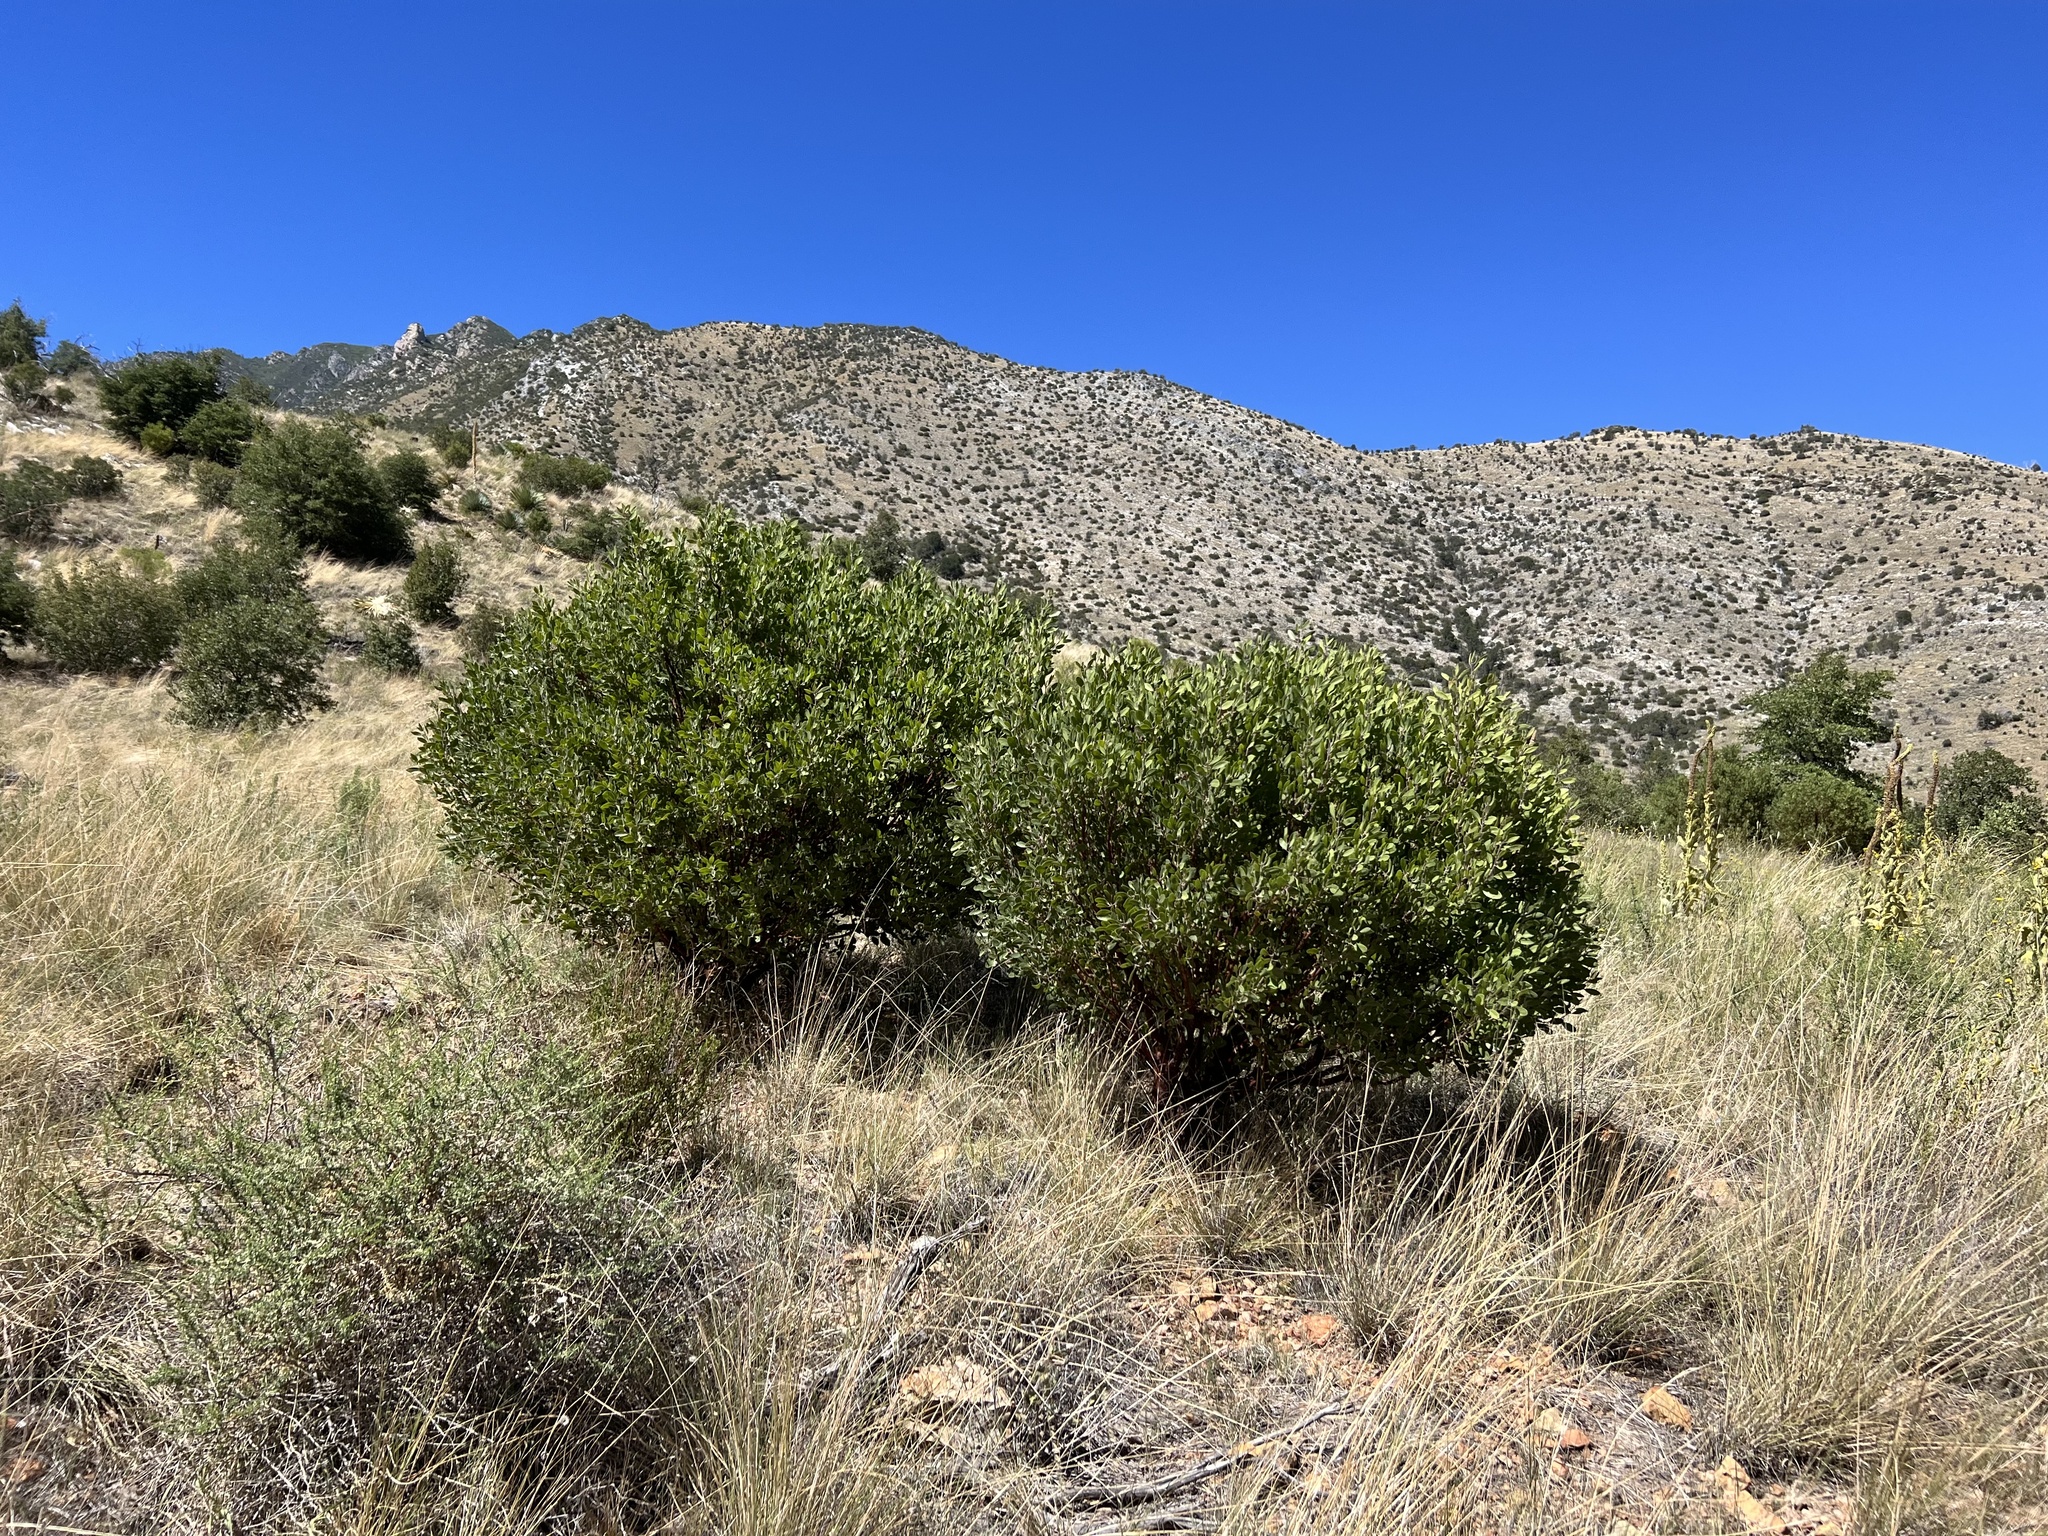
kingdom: Plantae
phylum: Tracheophyta
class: Magnoliopsida
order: Ericales
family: Ericaceae
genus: Arctostaphylos
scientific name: Arctostaphylos pungens
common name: Mexican manzanita
